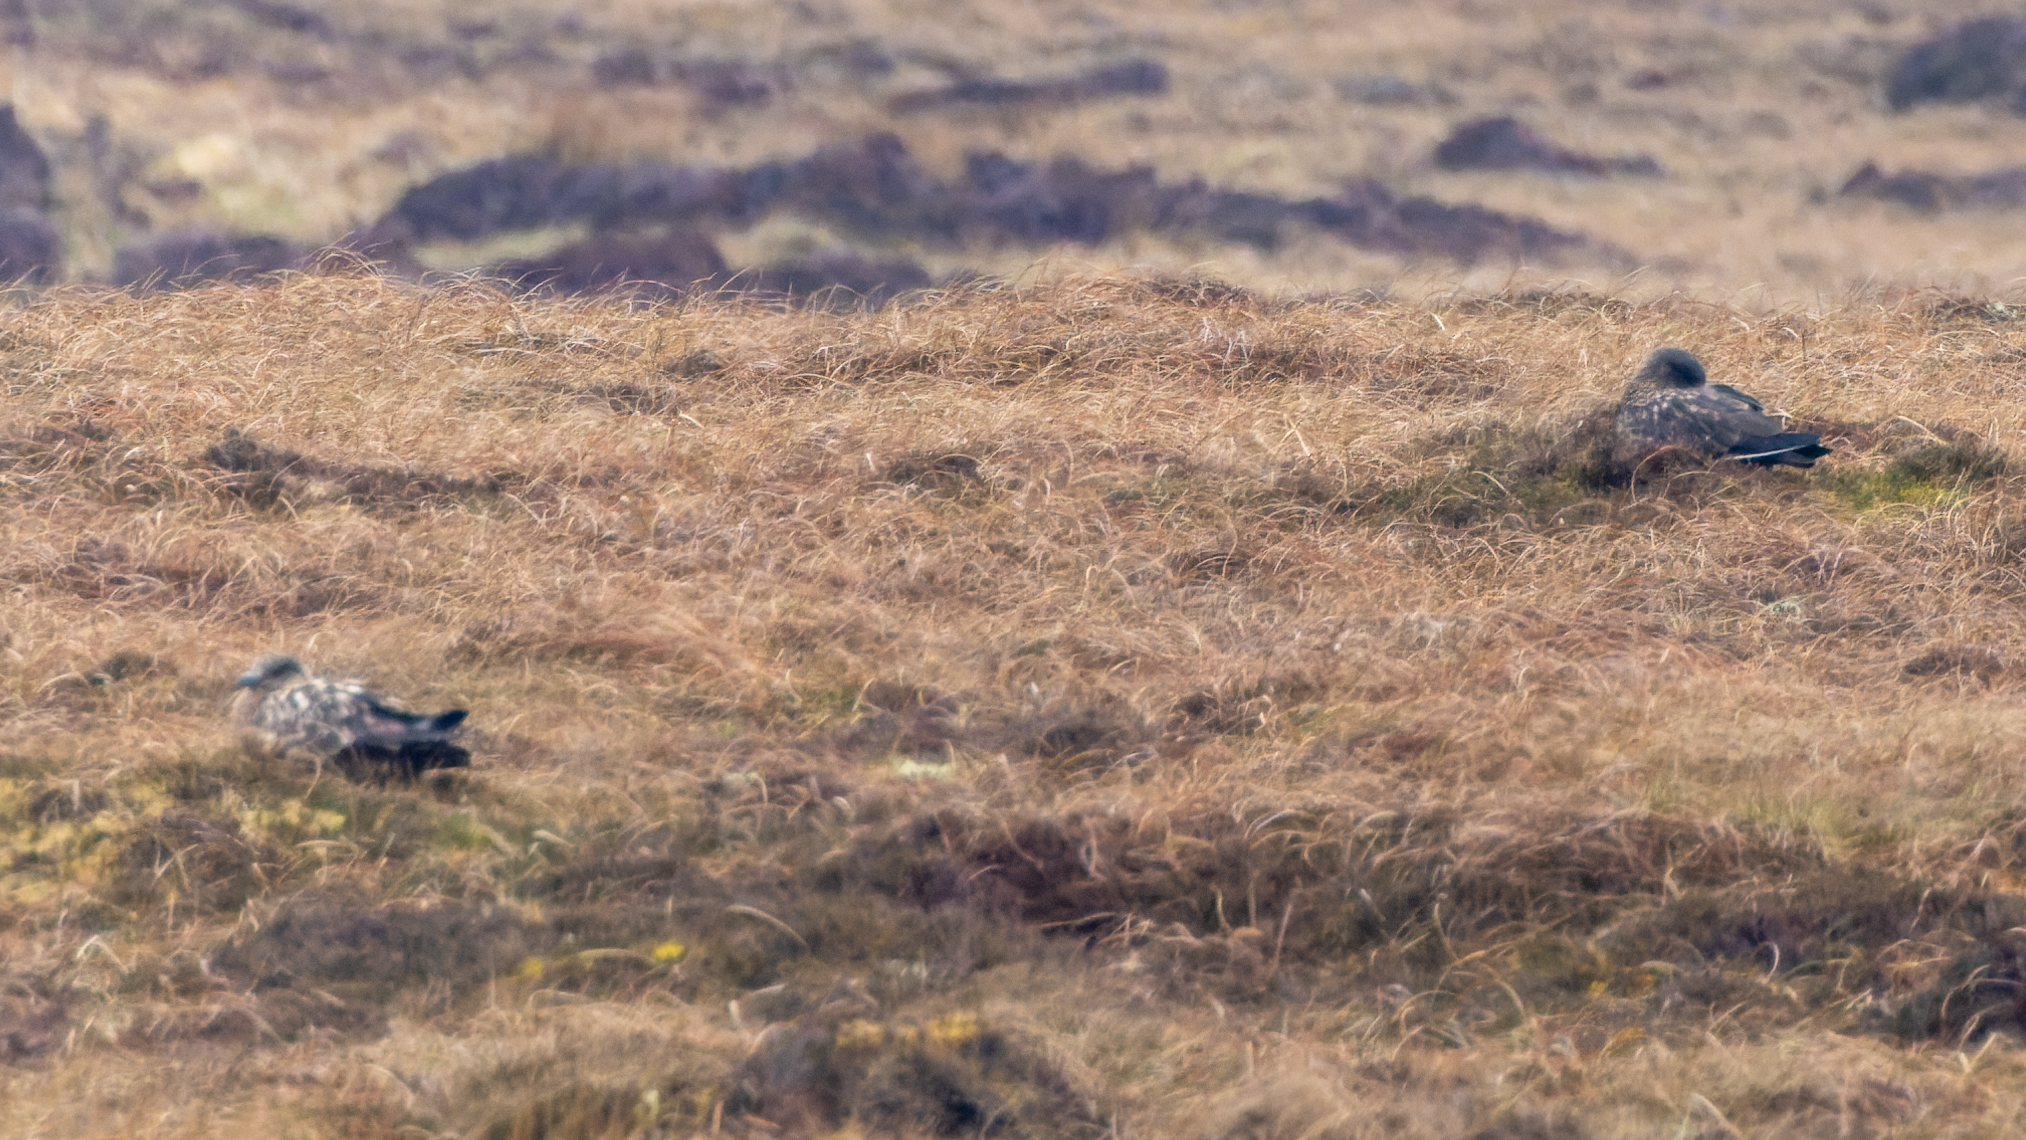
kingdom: Animalia
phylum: Chordata
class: Aves
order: Charadriiformes
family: Stercorariidae
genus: Stercorarius
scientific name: Stercorarius skua
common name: Great skua
